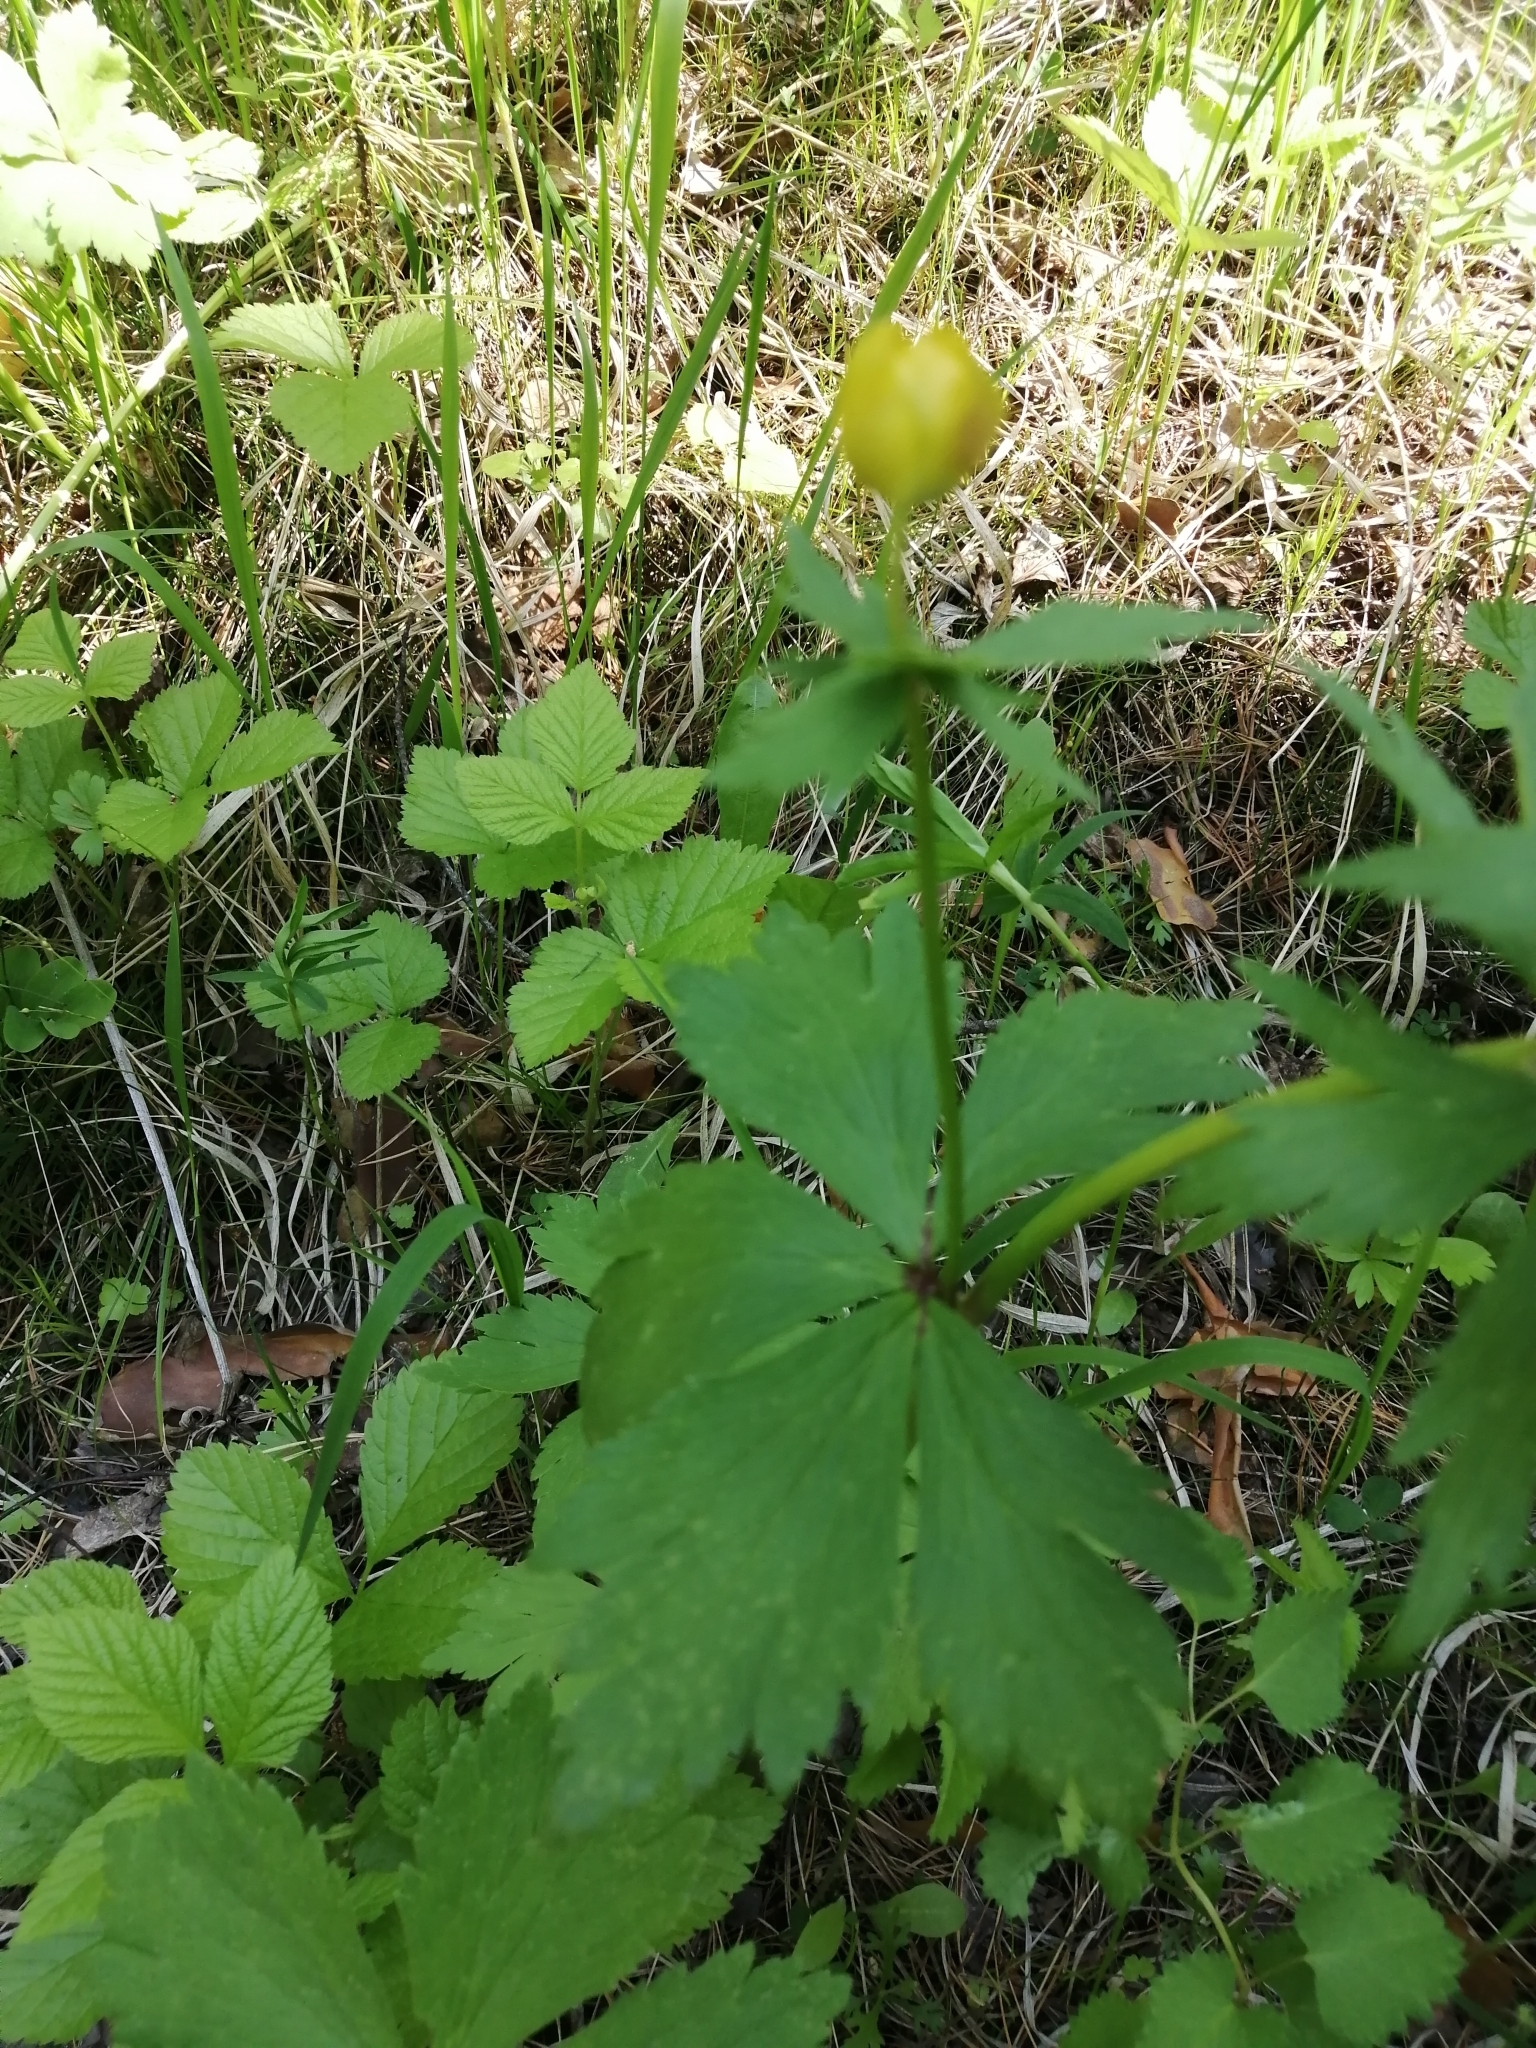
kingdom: Plantae
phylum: Tracheophyta
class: Magnoliopsida
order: Ranunculales
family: Ranunculaceae
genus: Trollius
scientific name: Trollius sibiricus
